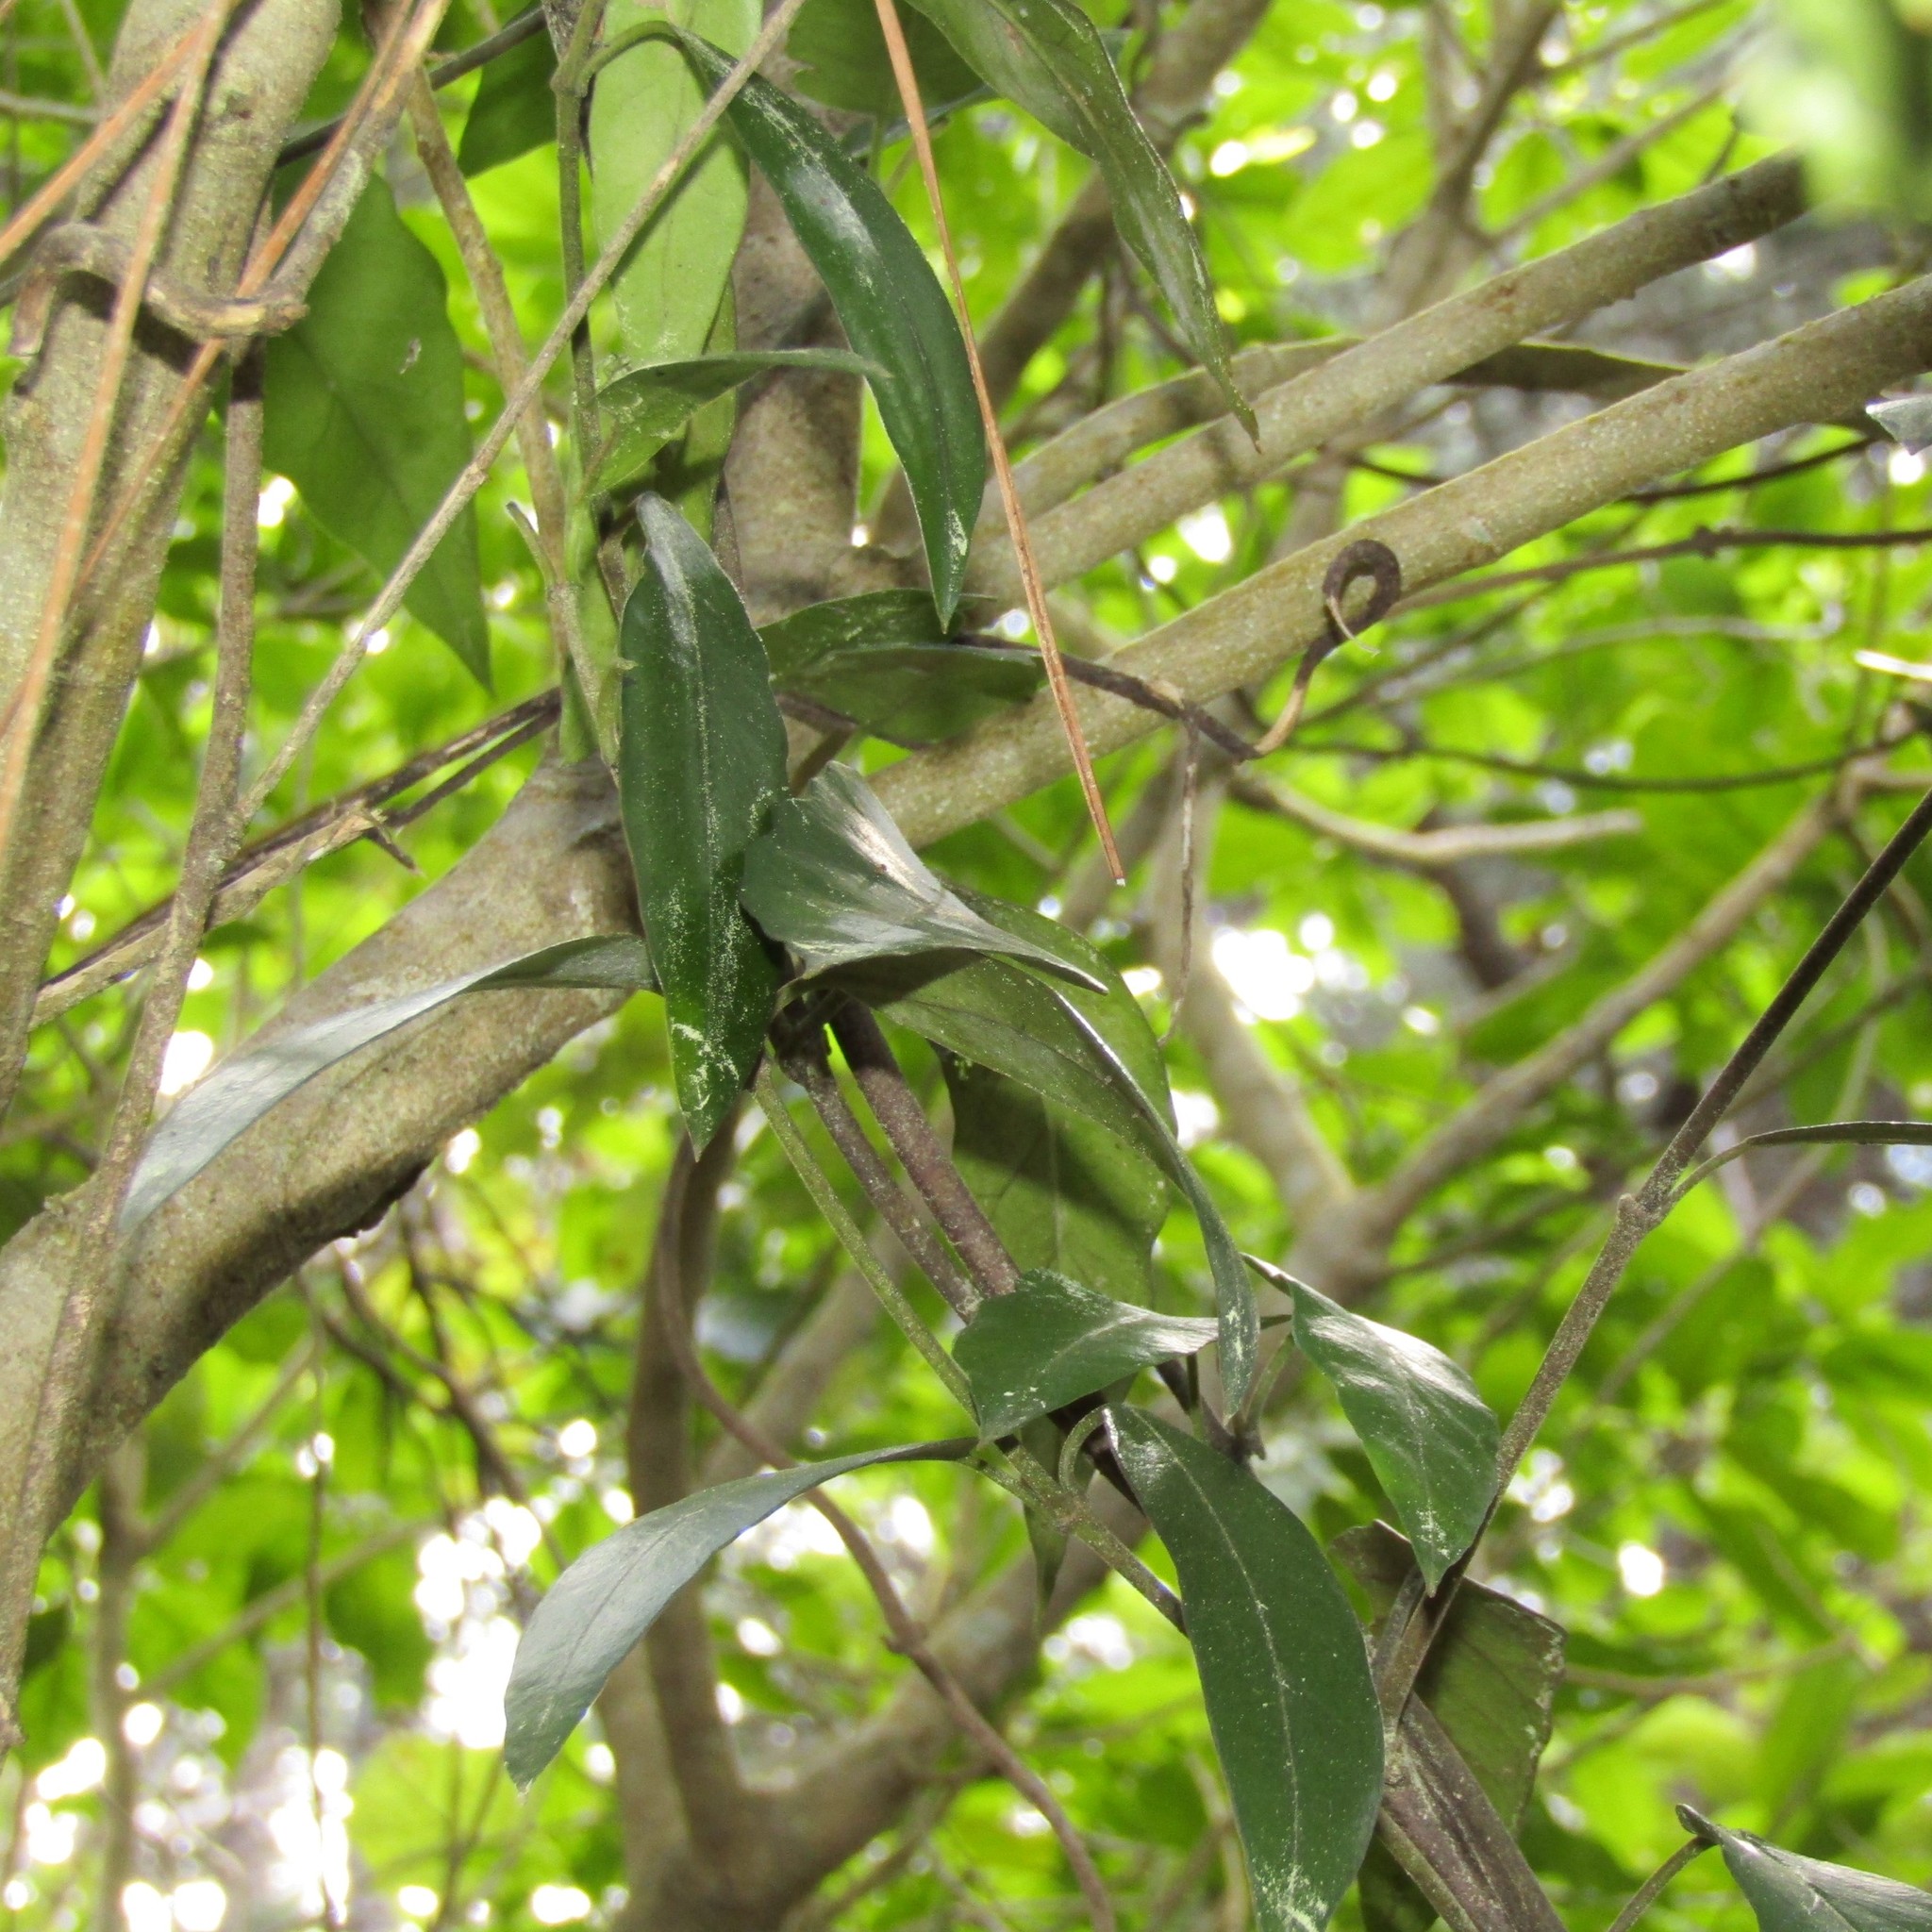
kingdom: Plantae
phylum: Tracheophyta
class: Magnoliopsida
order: Gentianales
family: Apocynaceae
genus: Parsonsia
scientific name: Parsonsia heterophylla
